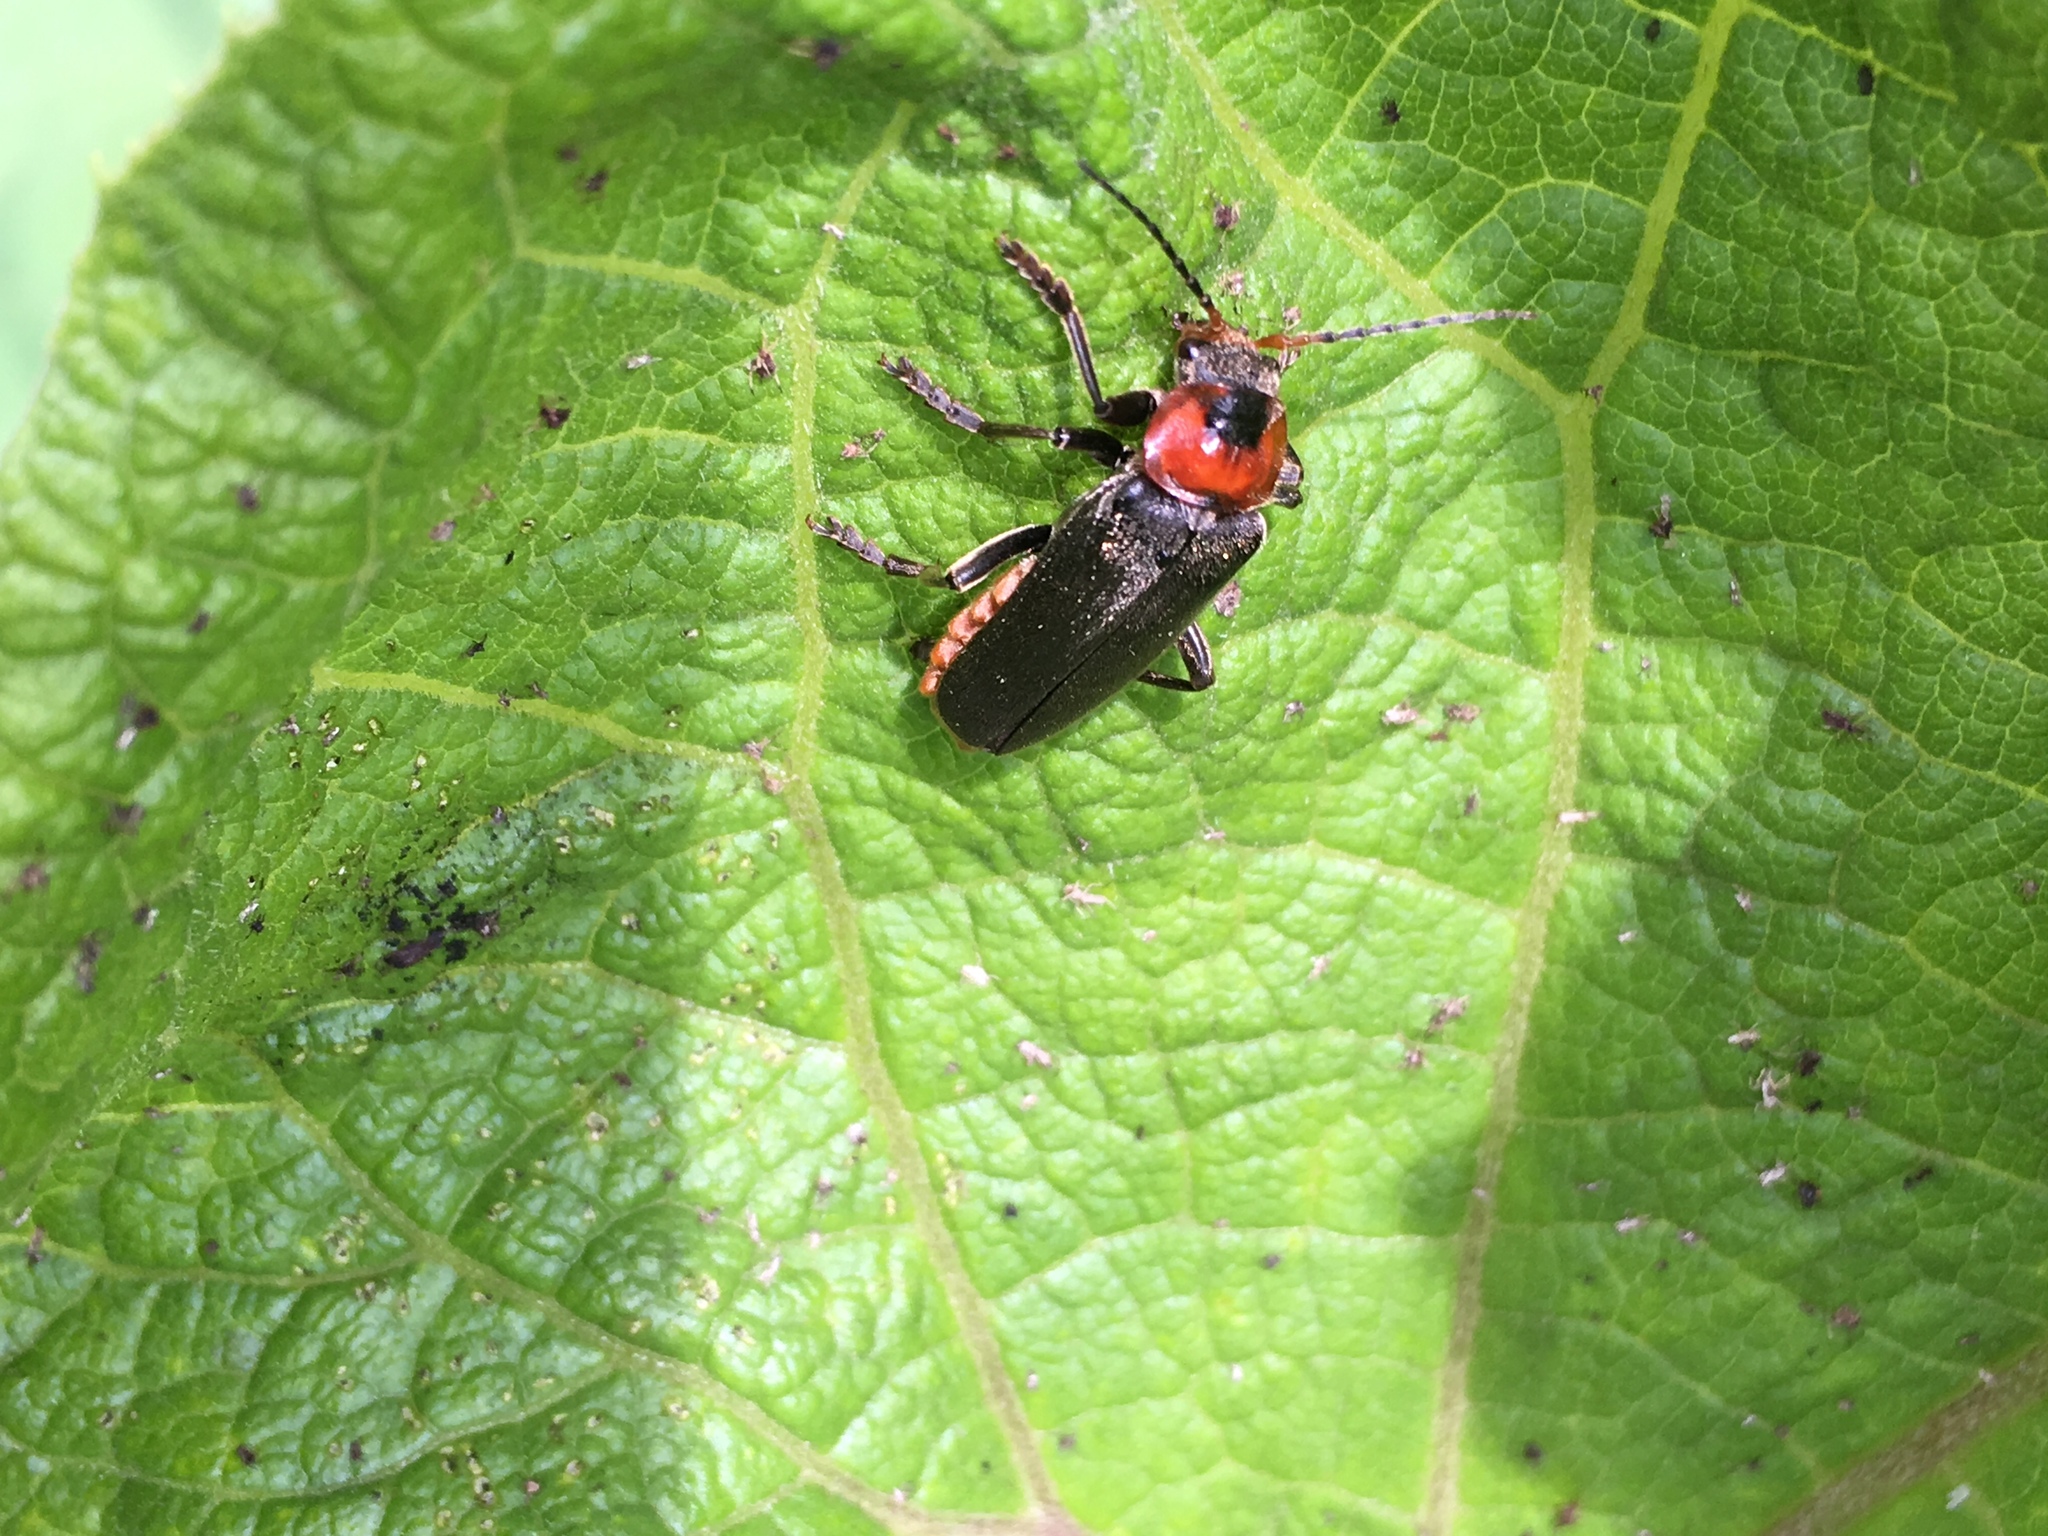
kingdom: Animalia
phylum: Arthropoda
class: Insecta
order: Coleoptera
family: Cantharidae
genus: Cantharis
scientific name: Cantharis fusca
